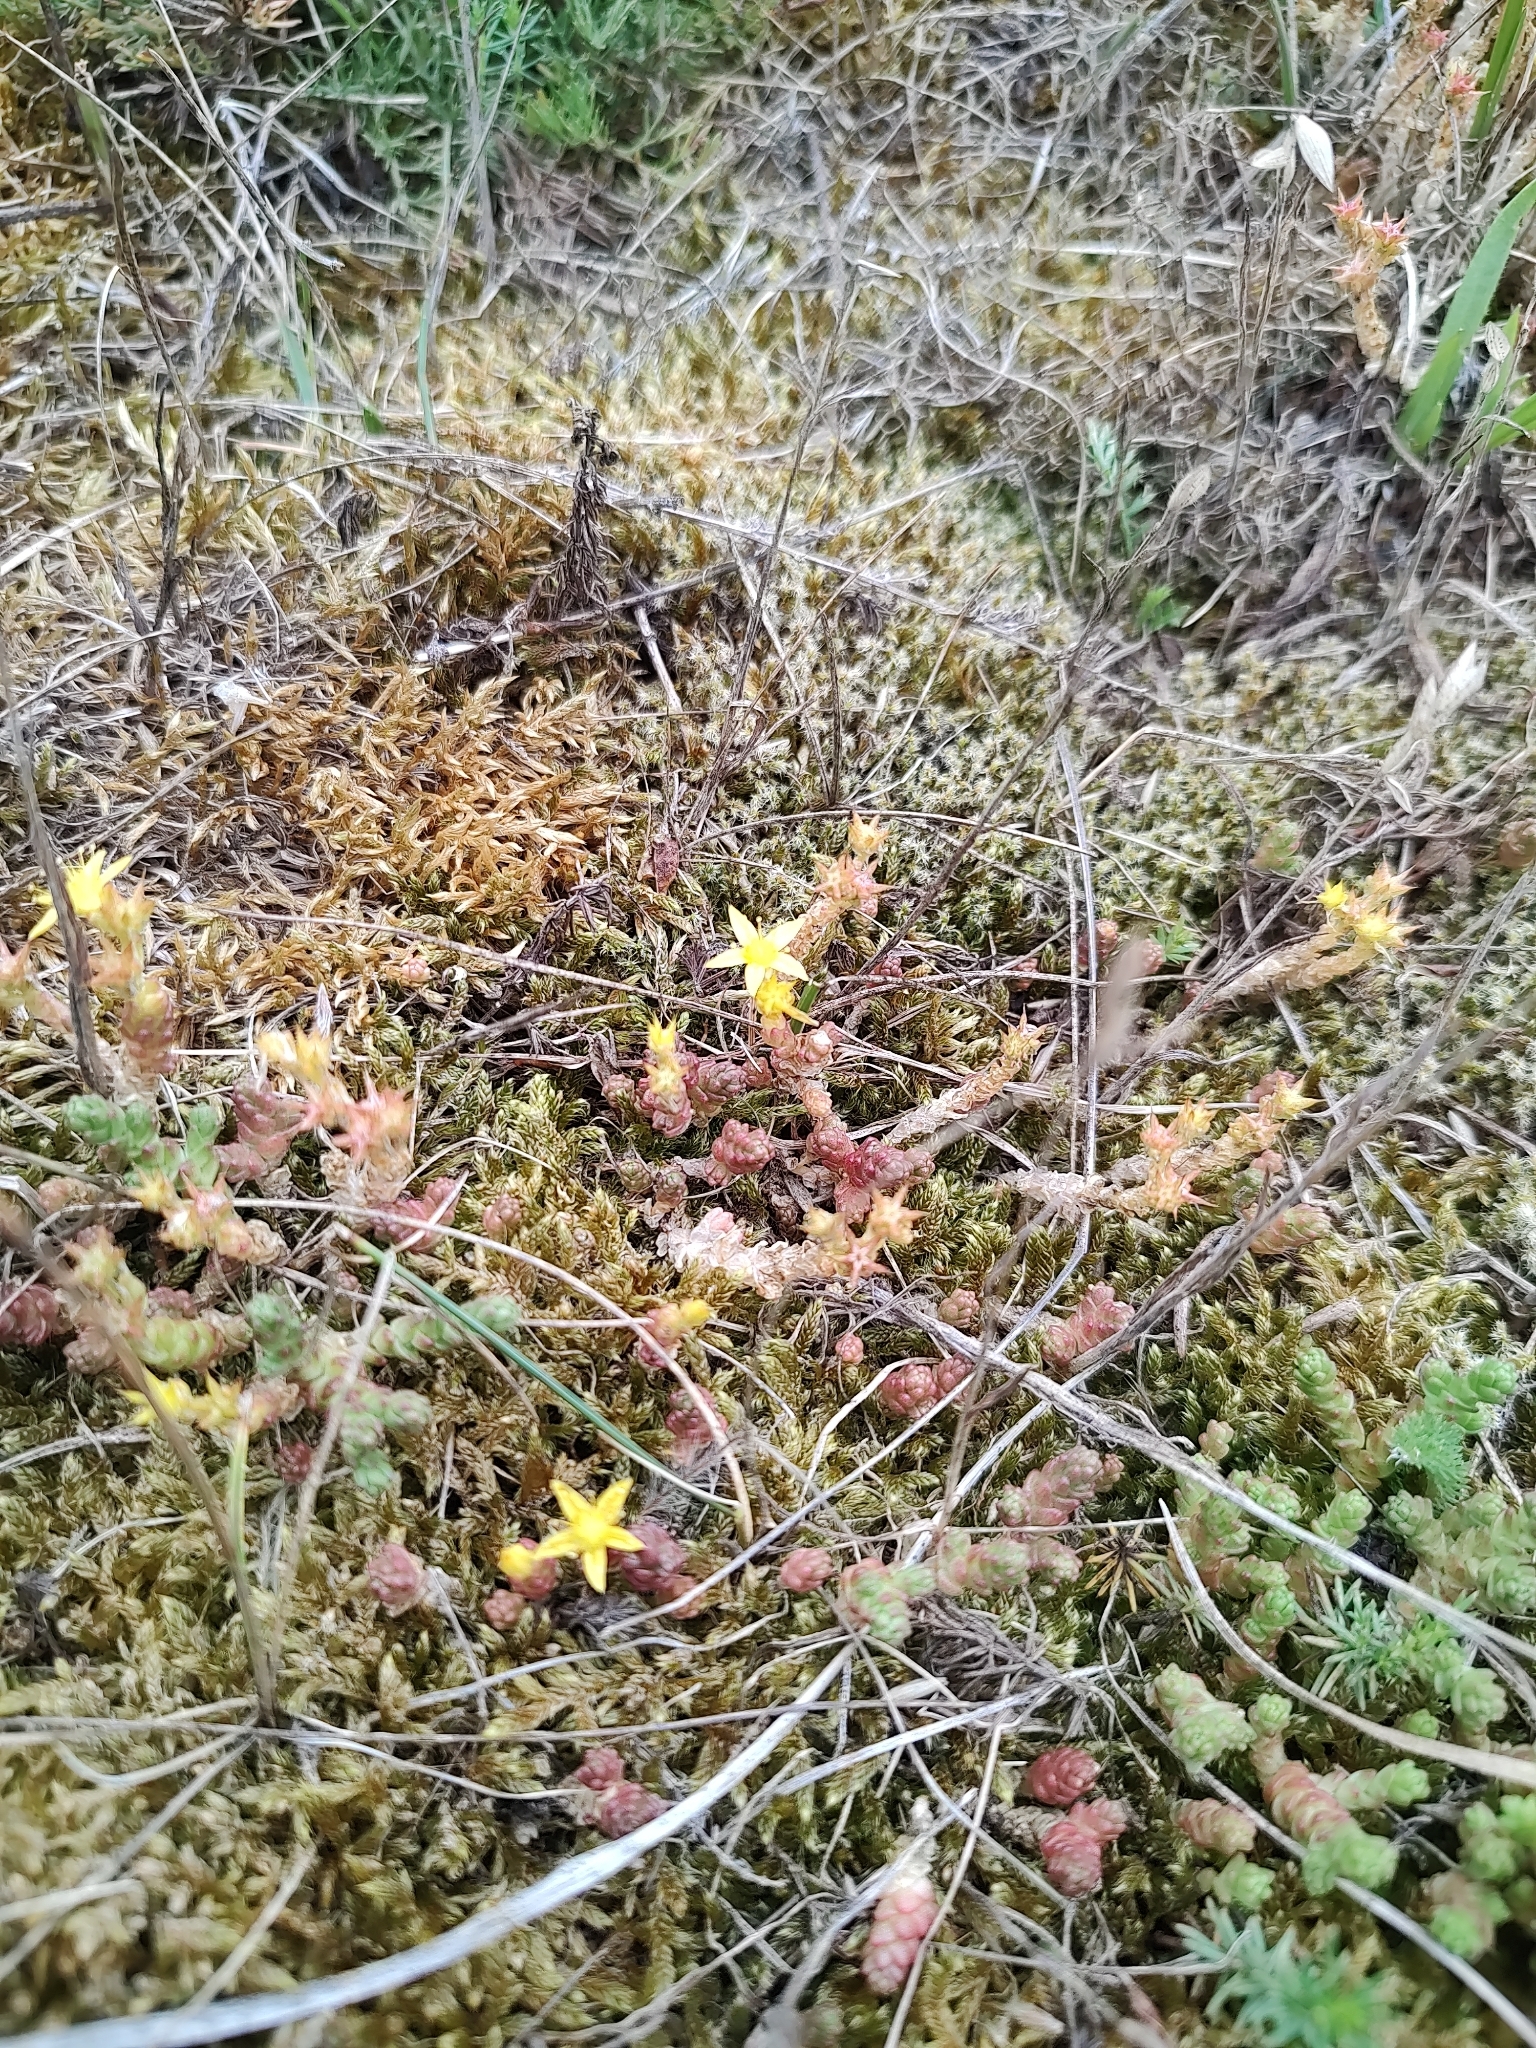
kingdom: Plantae
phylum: Tracheophyta
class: Magnoliopsida
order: Saxifragales
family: Crassulaceae
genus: Sedum
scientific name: Sedum acre
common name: Biting stonecrop
